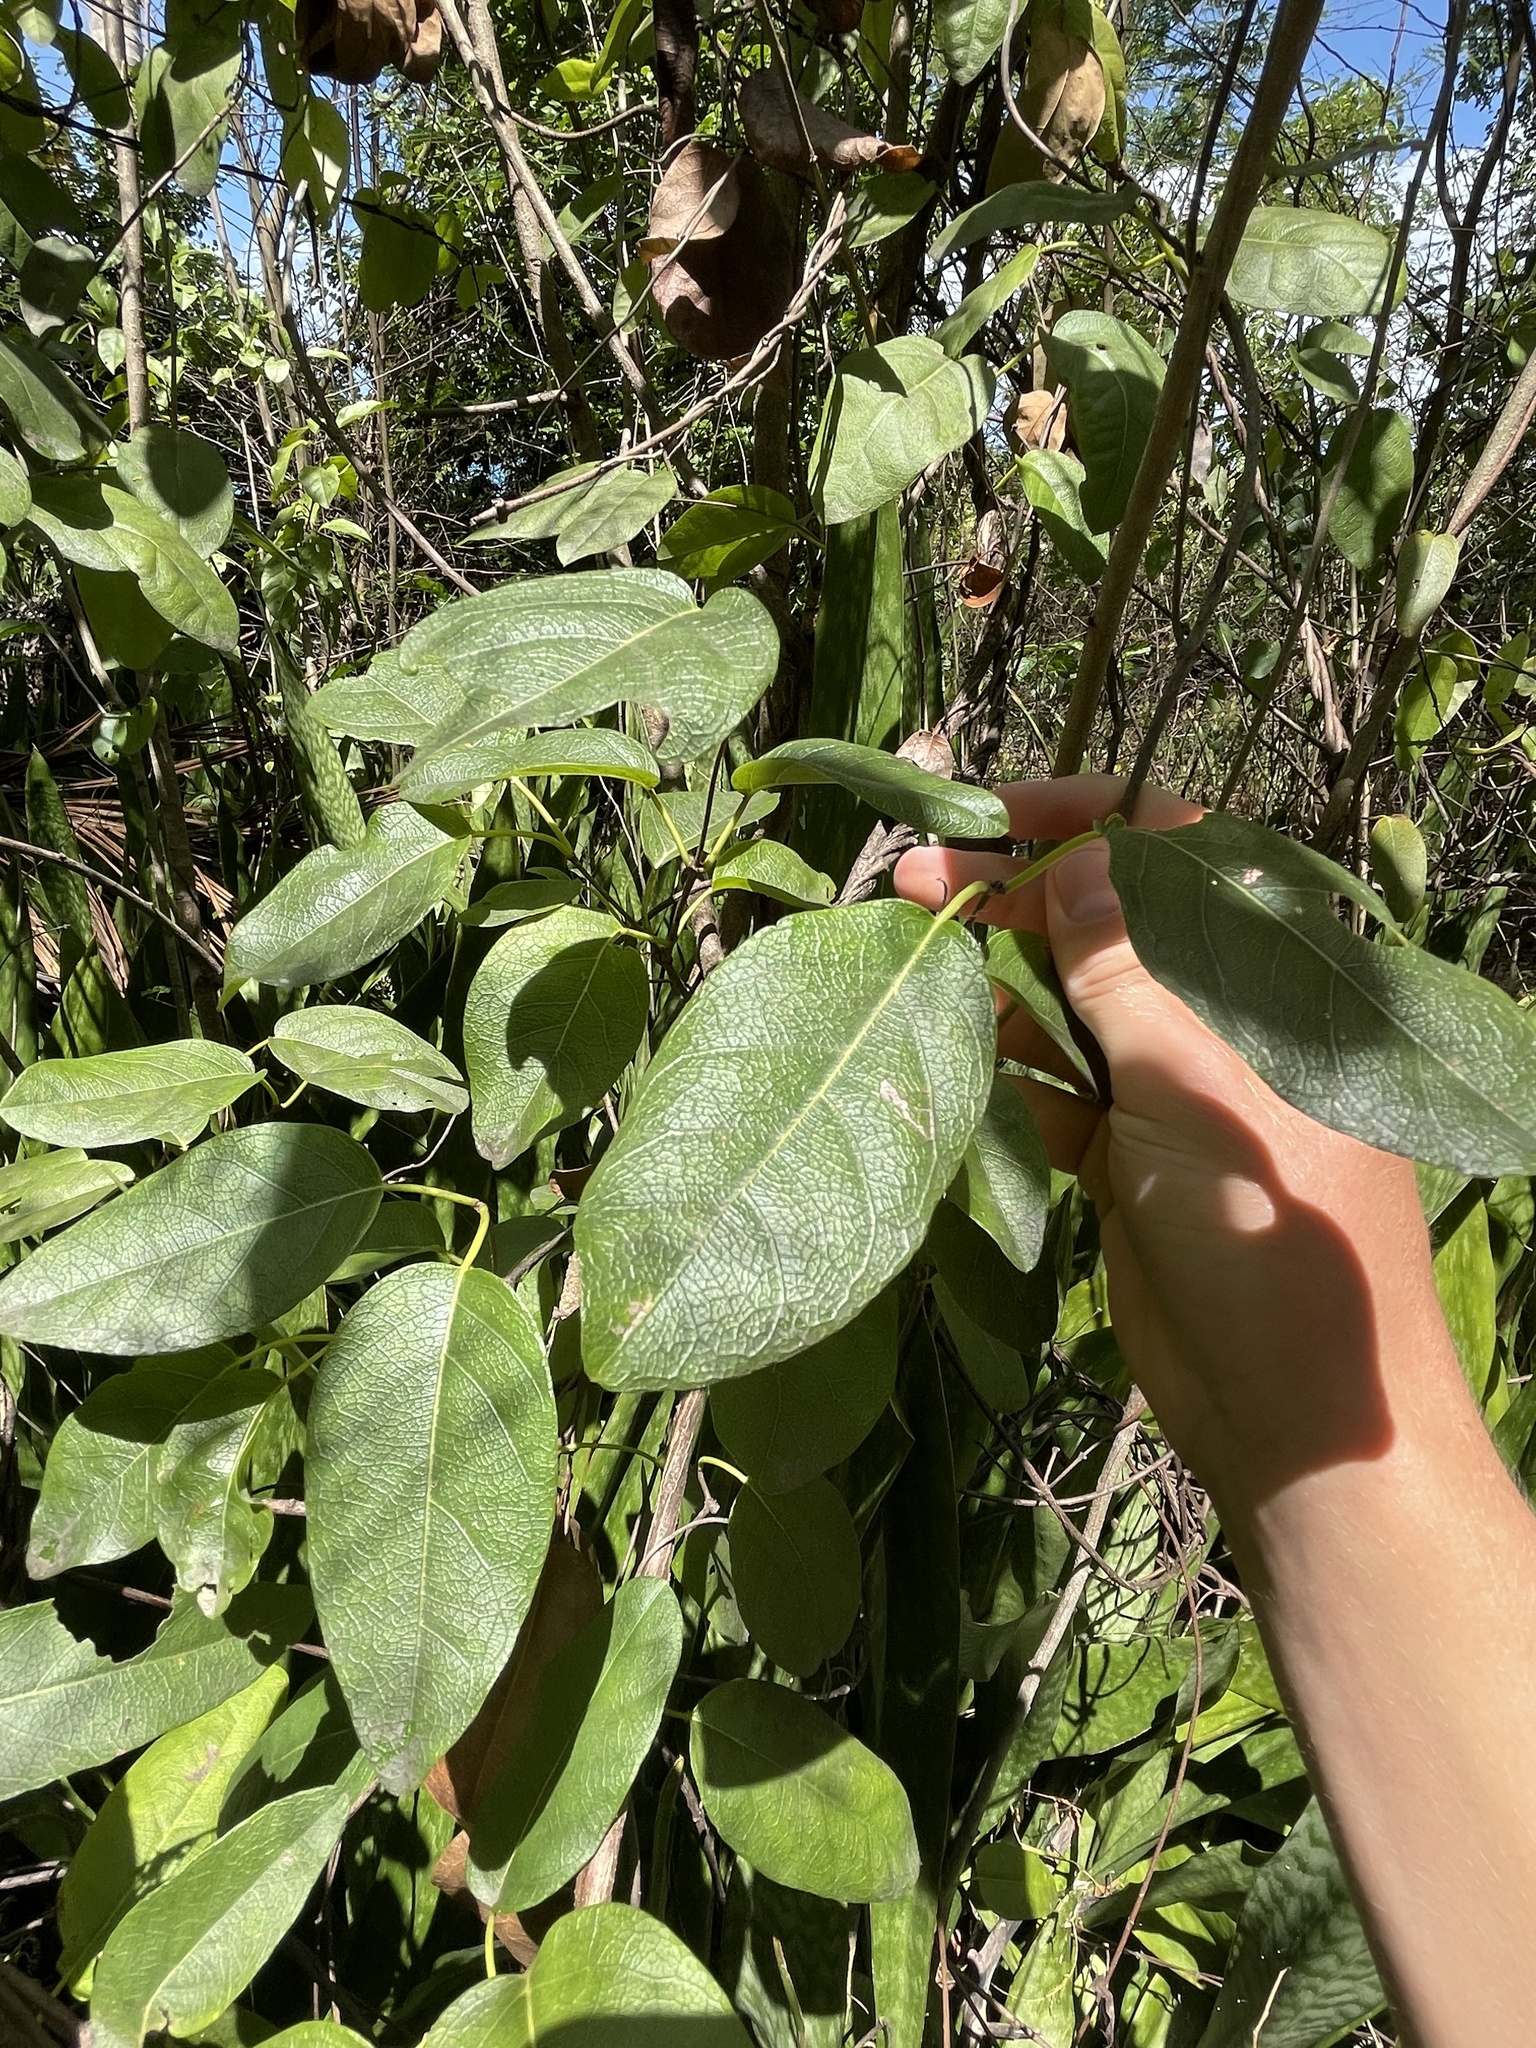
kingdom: Plantae
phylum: Tracheophyta
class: Magnoliopsida
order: Malpighiales
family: Malpighiaceae
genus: Stigmaphyllon
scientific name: Stigmaphyllon emarginatum
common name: Monarch amazonvine
